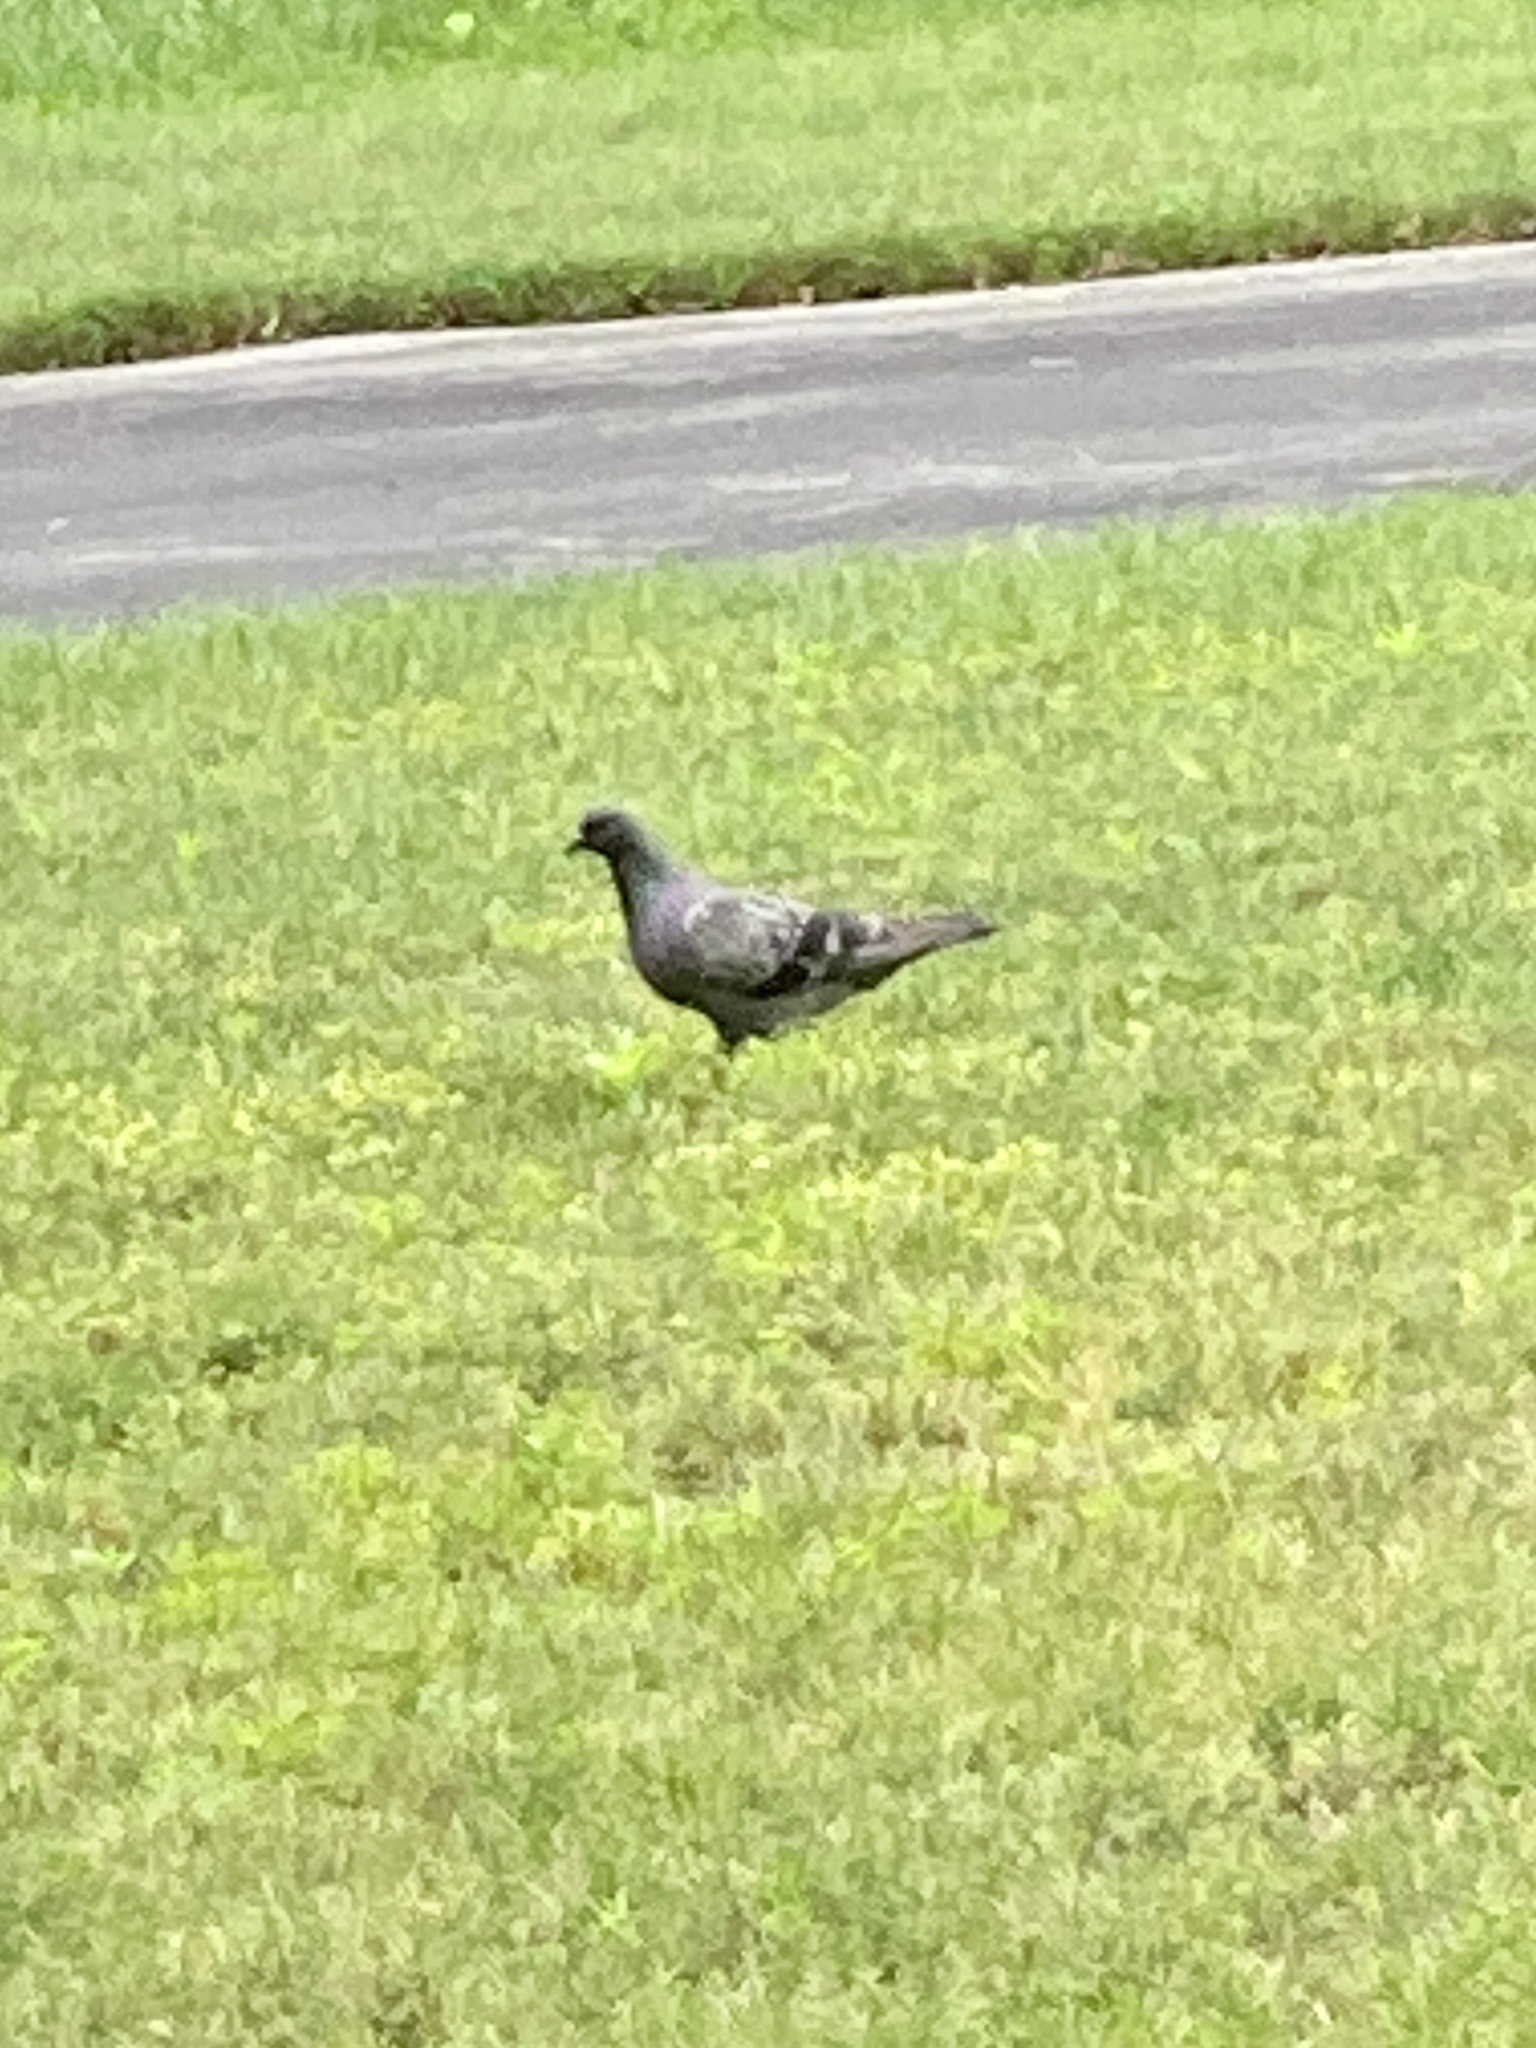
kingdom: Animalia
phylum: Chordata
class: Aves
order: Columbiformes
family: Columbidae
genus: Columba
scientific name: Columba livia
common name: Rock pigeon
